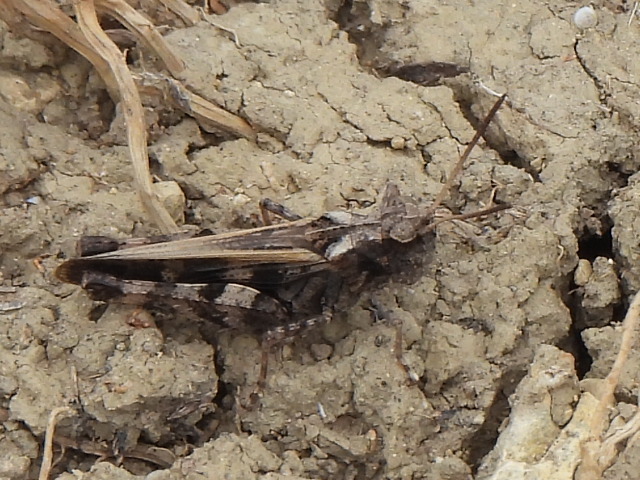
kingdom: Animalia
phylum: Arthropoda
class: Insecta
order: Orthoptera
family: Acrididae
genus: Encoptolophus
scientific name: Encoptolophus costalis
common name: Dusky grasshopper
